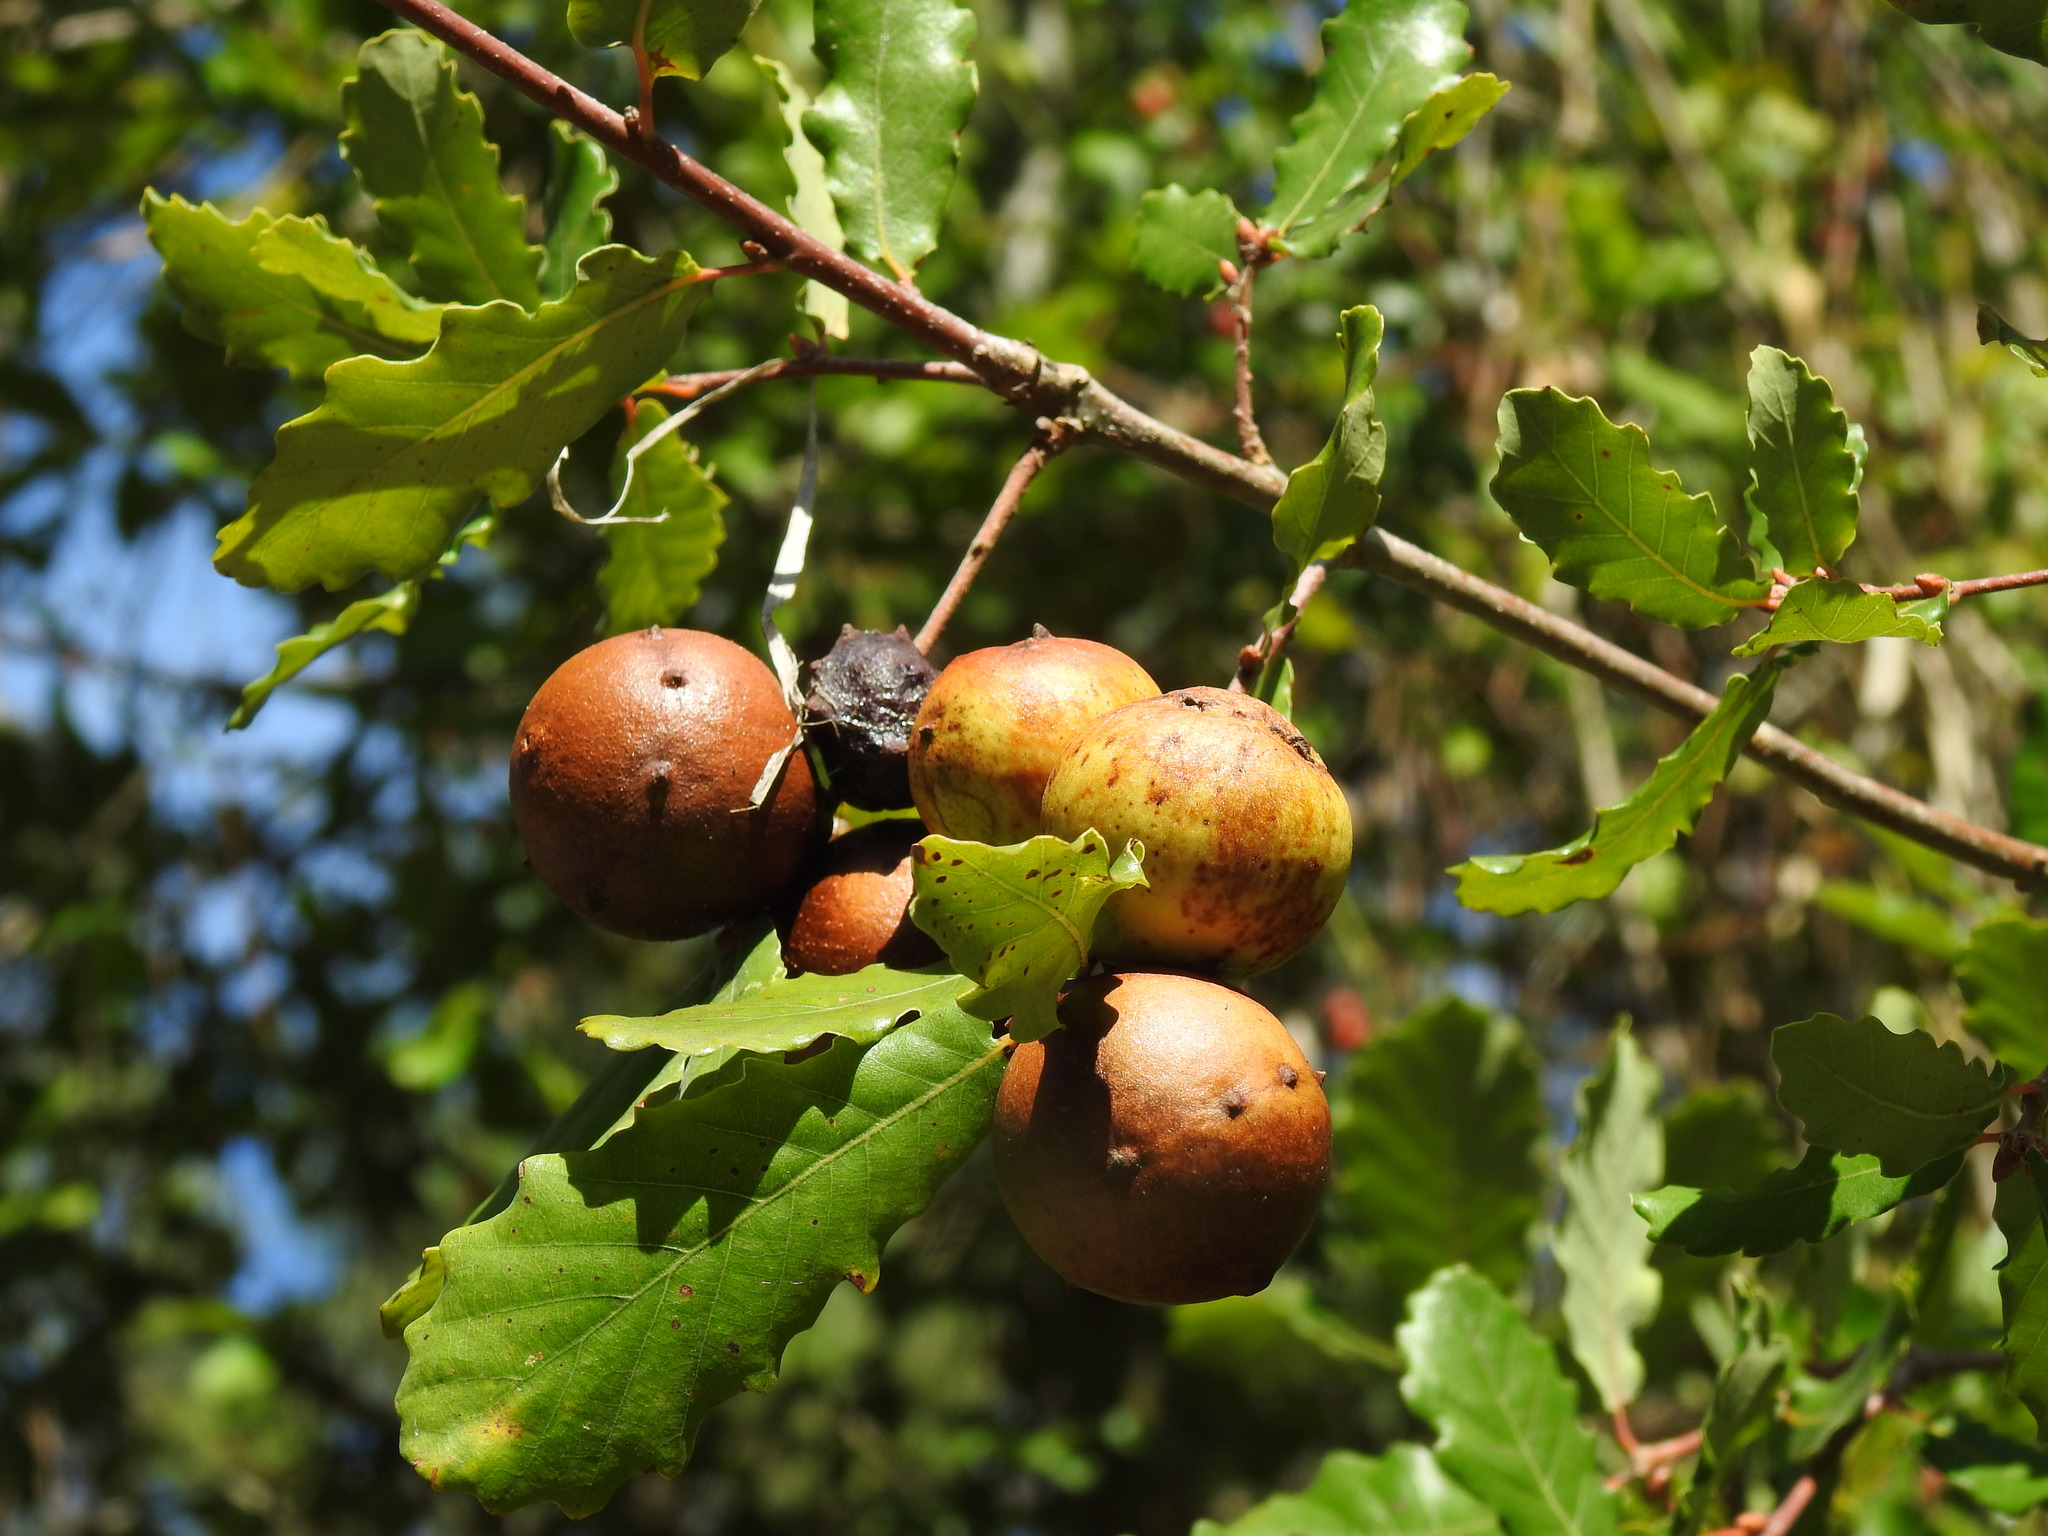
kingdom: Animalia
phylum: Arthropoda
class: Insecta
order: Hymenoptera
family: Cynipidae
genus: Andricus
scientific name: Andricus quercustozae
